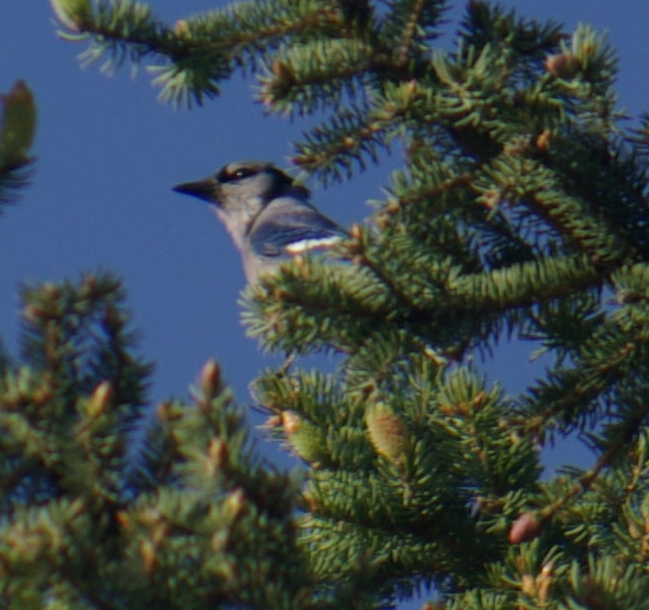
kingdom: Animalia
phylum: Chordata
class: Aves
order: Passeriformes
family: Corvidae
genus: Cyanocitta
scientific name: Cyanocitta cristata
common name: Blue jay
